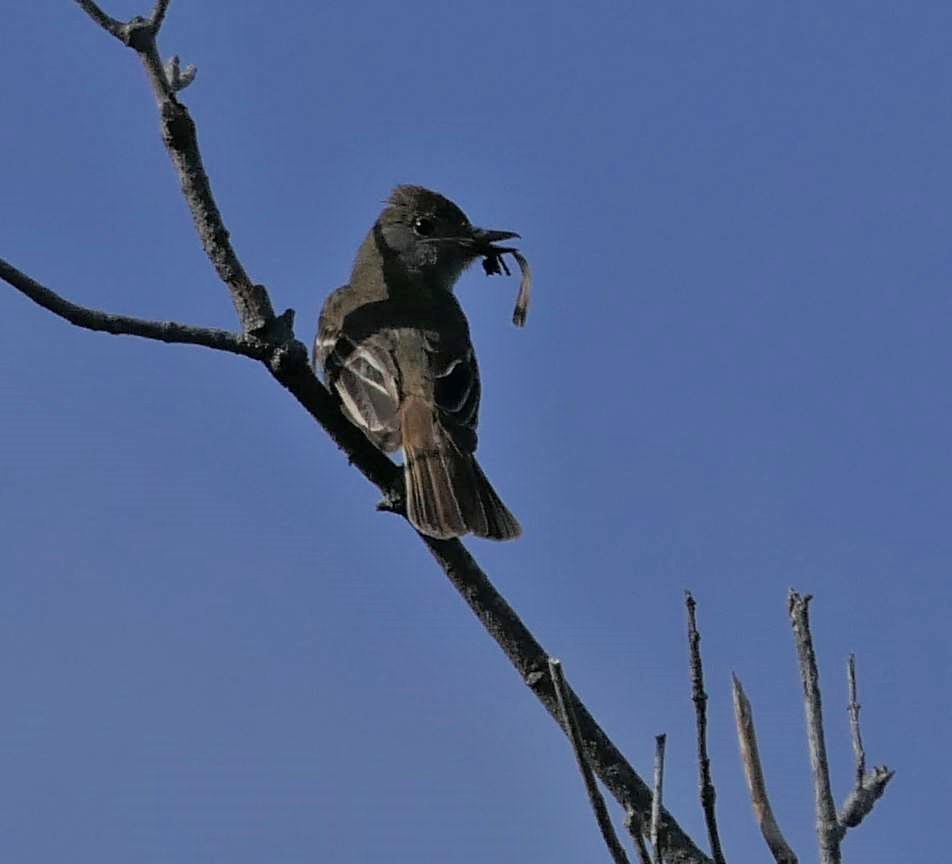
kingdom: Animalia
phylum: Chordata
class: Aves
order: Passeriformes
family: Tyrannidae
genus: Myiarchus
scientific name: Myiarchus crinitus
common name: Great crested flycatcher
